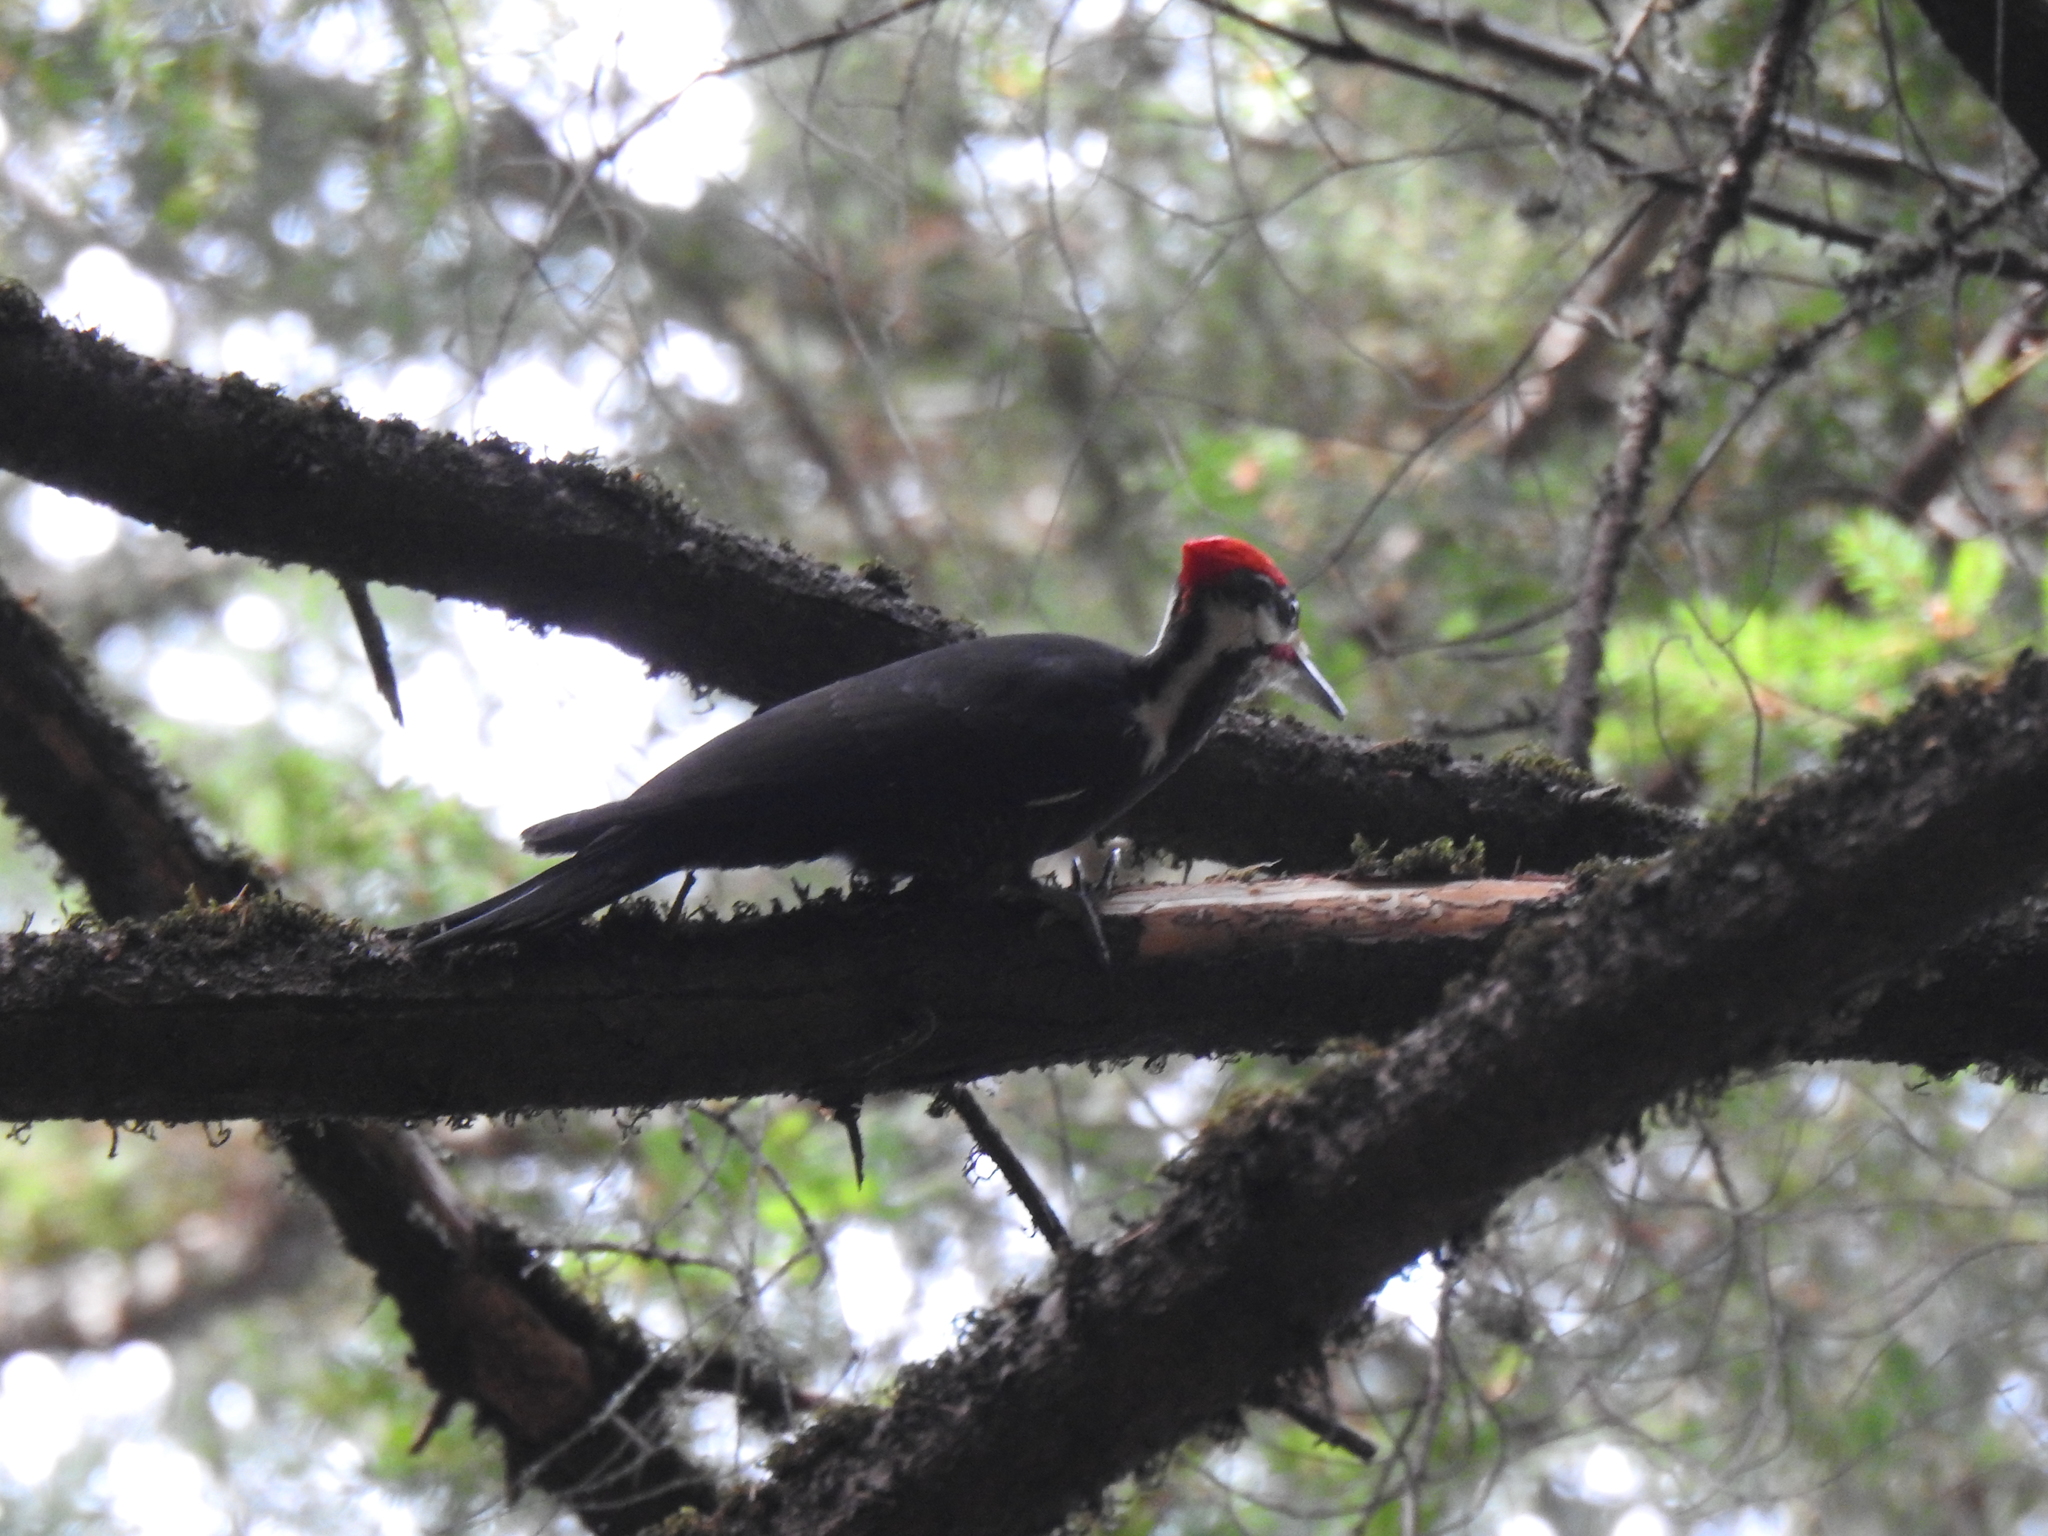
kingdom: Animalia
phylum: Chordata
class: Aves
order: Piciformes
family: Picidae
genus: Dryocopus
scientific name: Dryocopus pileatus
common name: Pileated woodpecker
